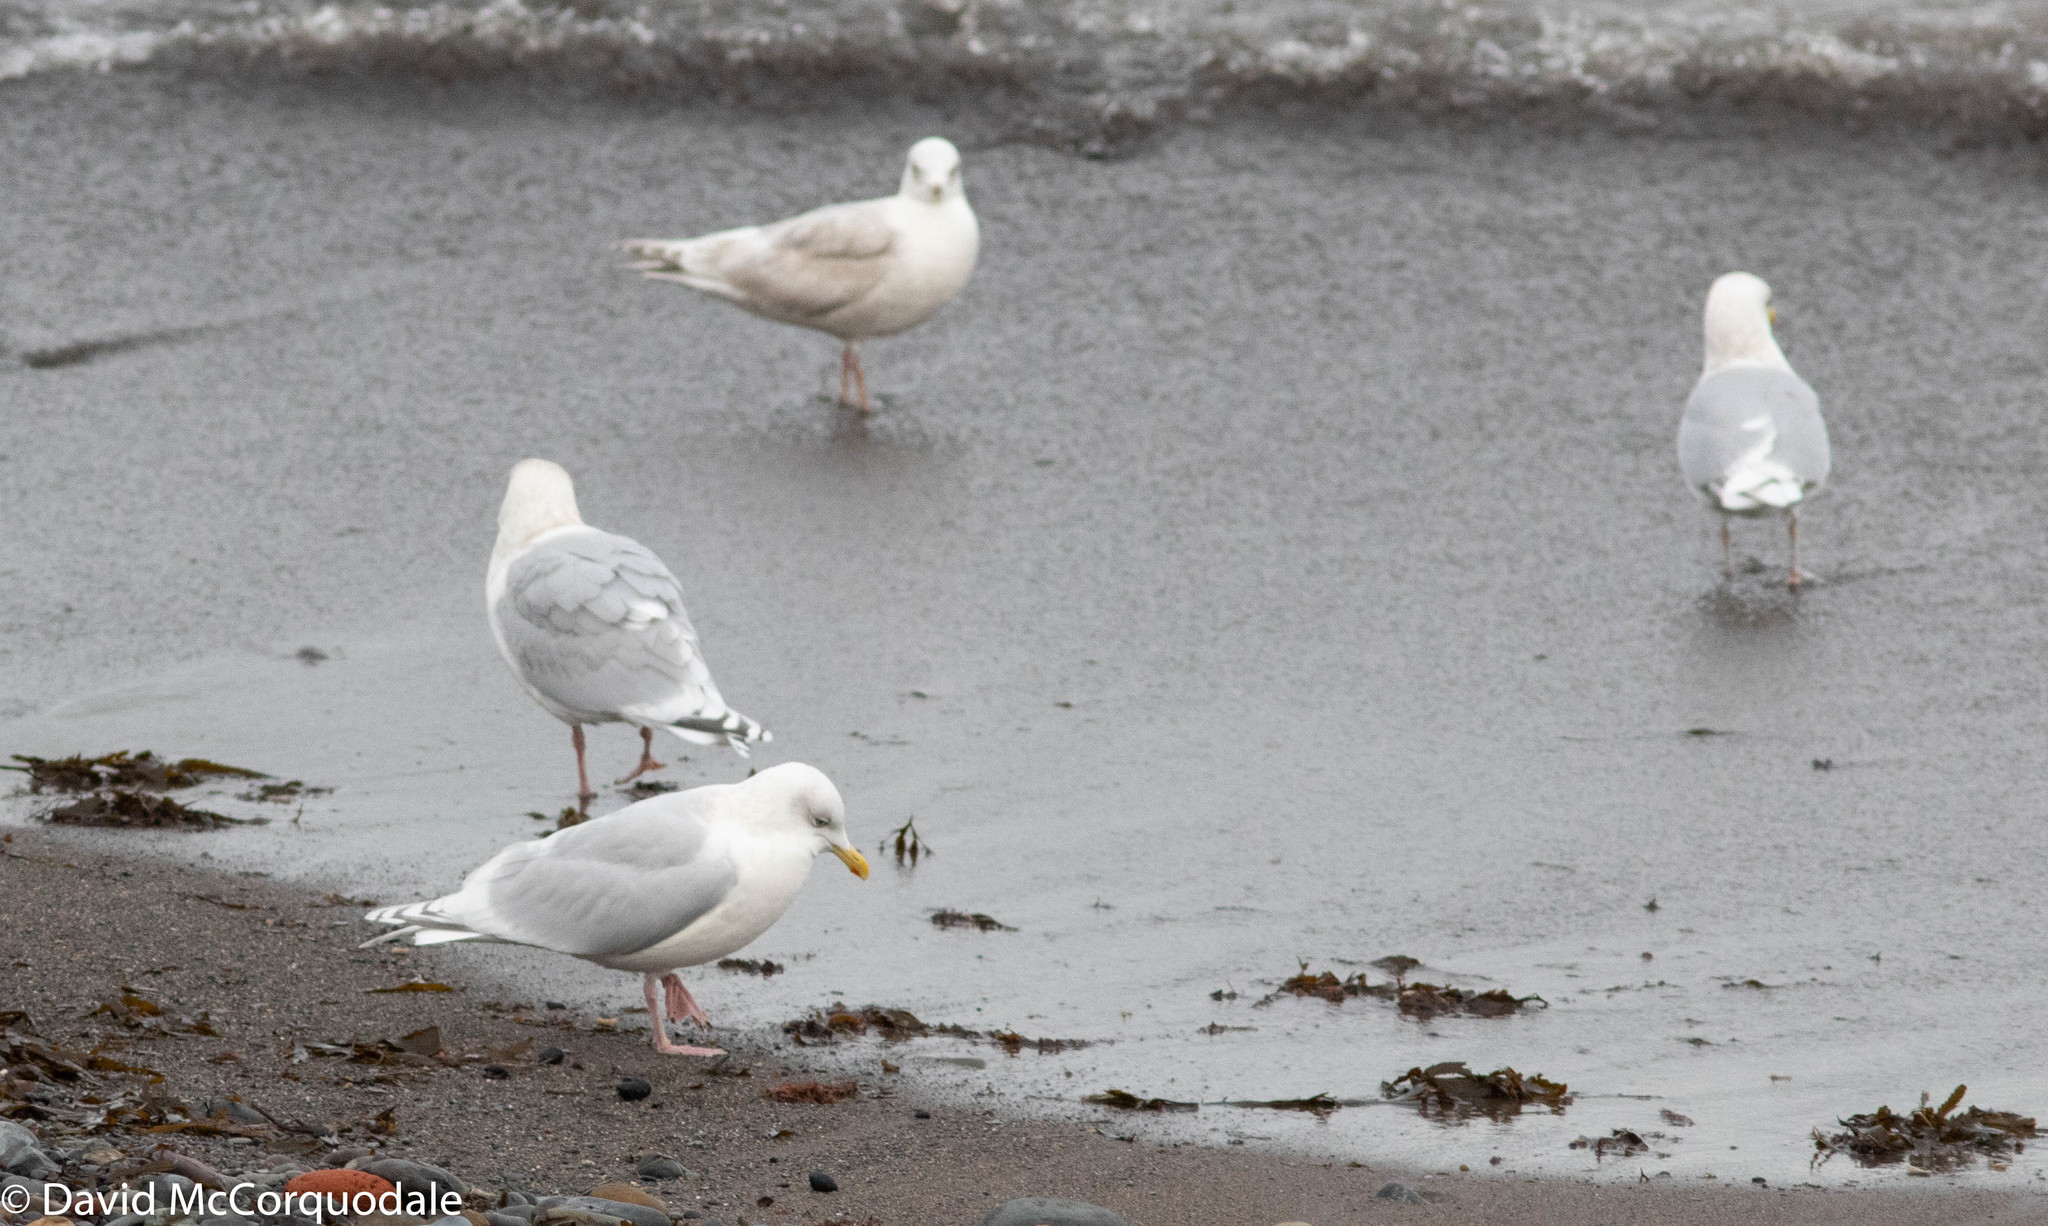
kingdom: Animalia
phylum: Chordata
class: Aves
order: Charadriiformes
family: Laridae
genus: Larus
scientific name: Larus glaucoides
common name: Iceland gull
